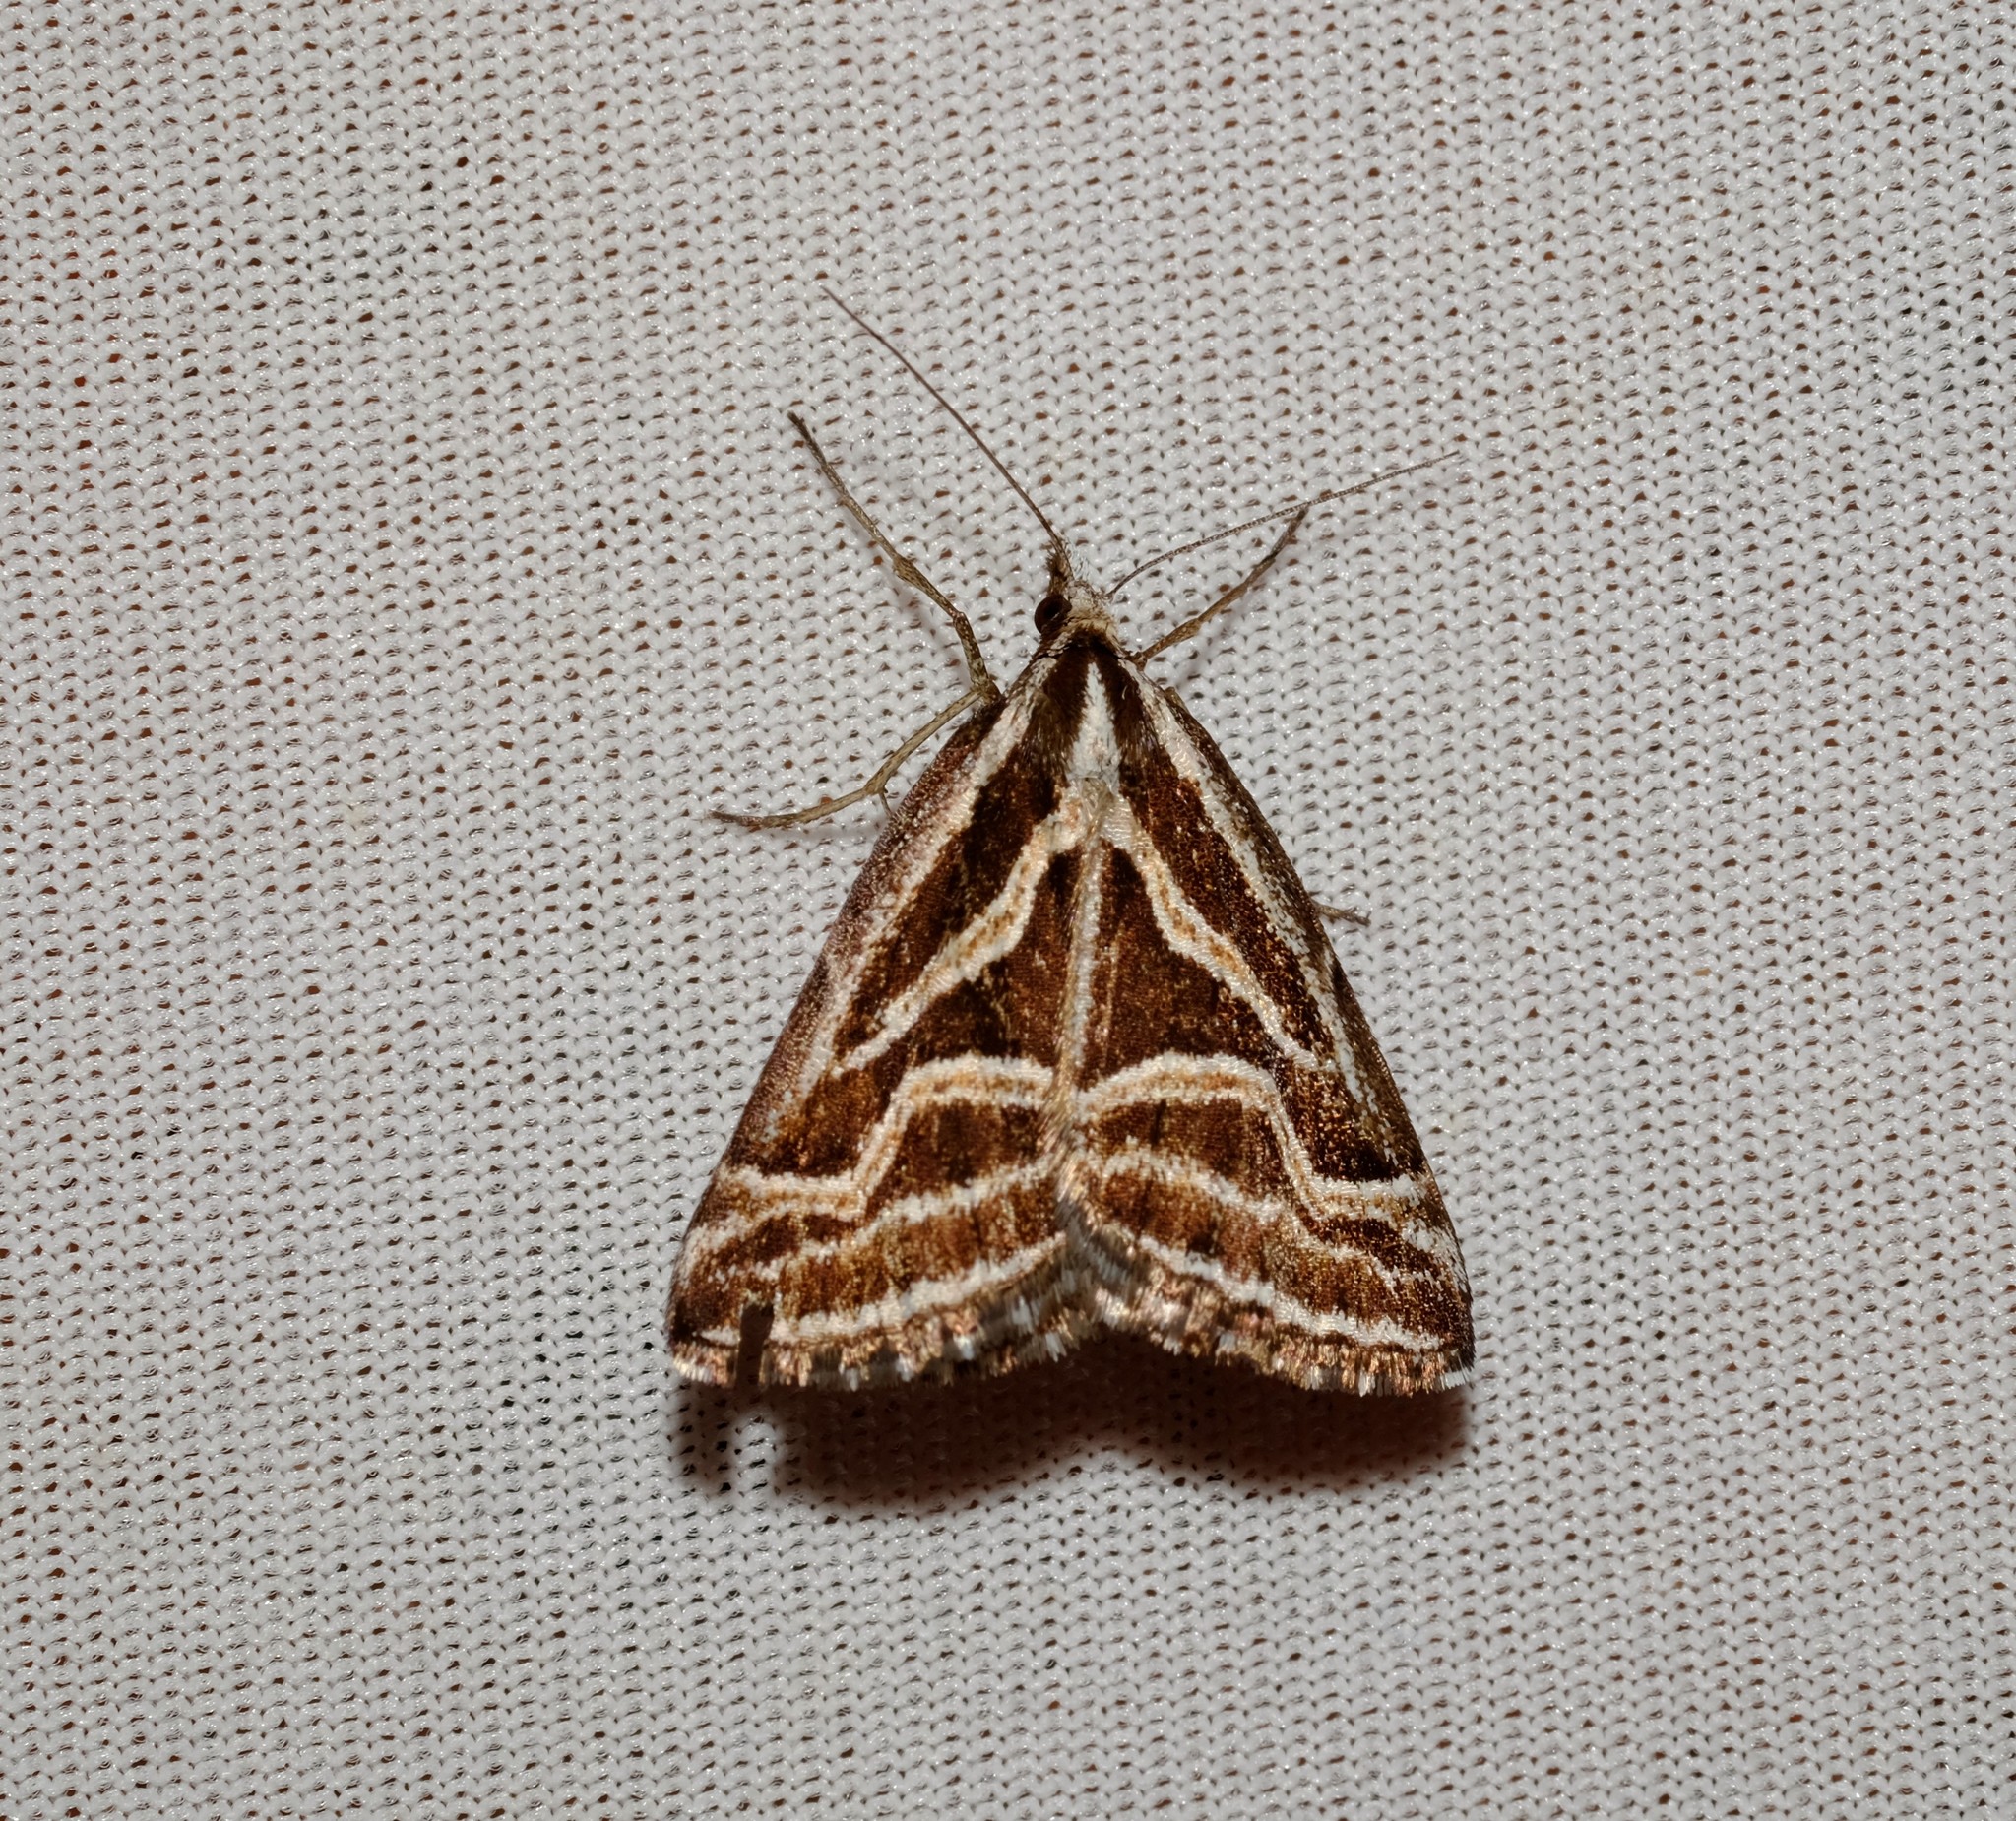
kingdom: Animalia
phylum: Arthropoda
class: Insecta
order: Lepidoptera
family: Geometridae
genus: Dichromodes
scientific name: Dichromodes confluaria
